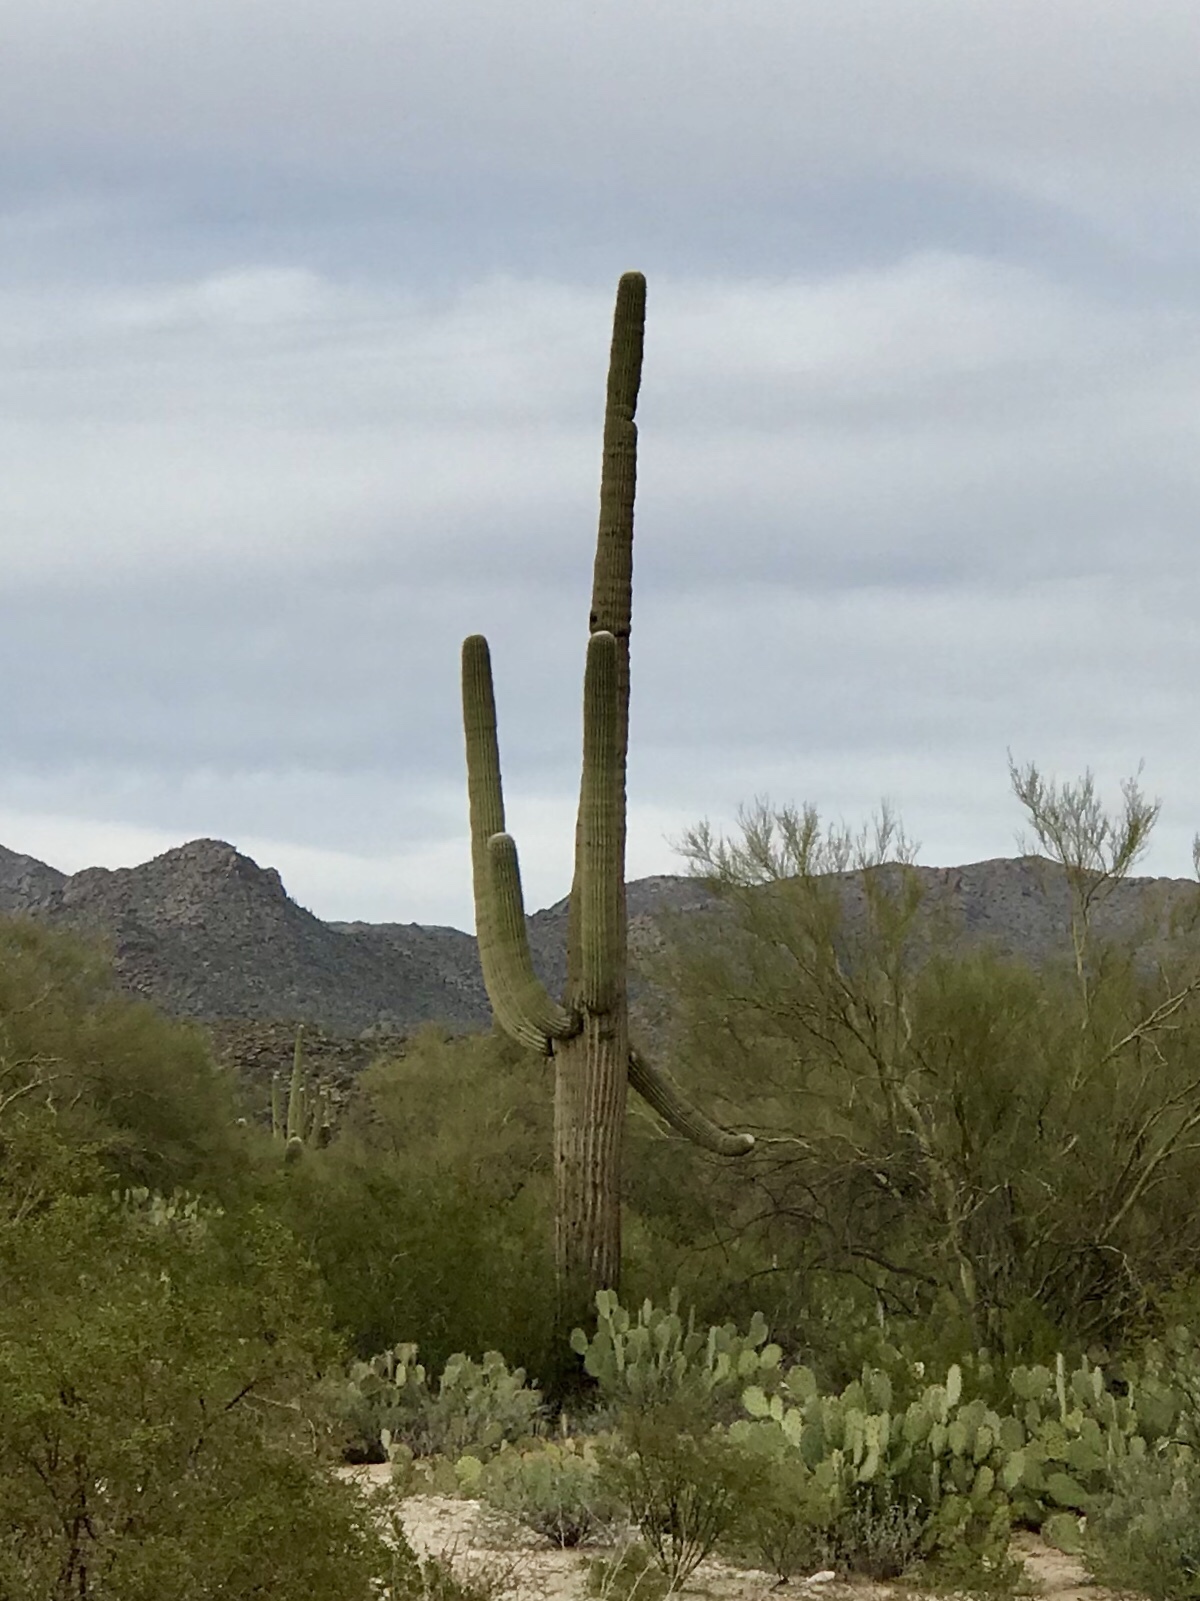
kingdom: Plantae
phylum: Tracheophyta
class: Magnoliopsida
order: Caryophyllales
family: Cactaceae
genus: Carnegiea
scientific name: Carnegiea gigantea
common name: Saguaro
